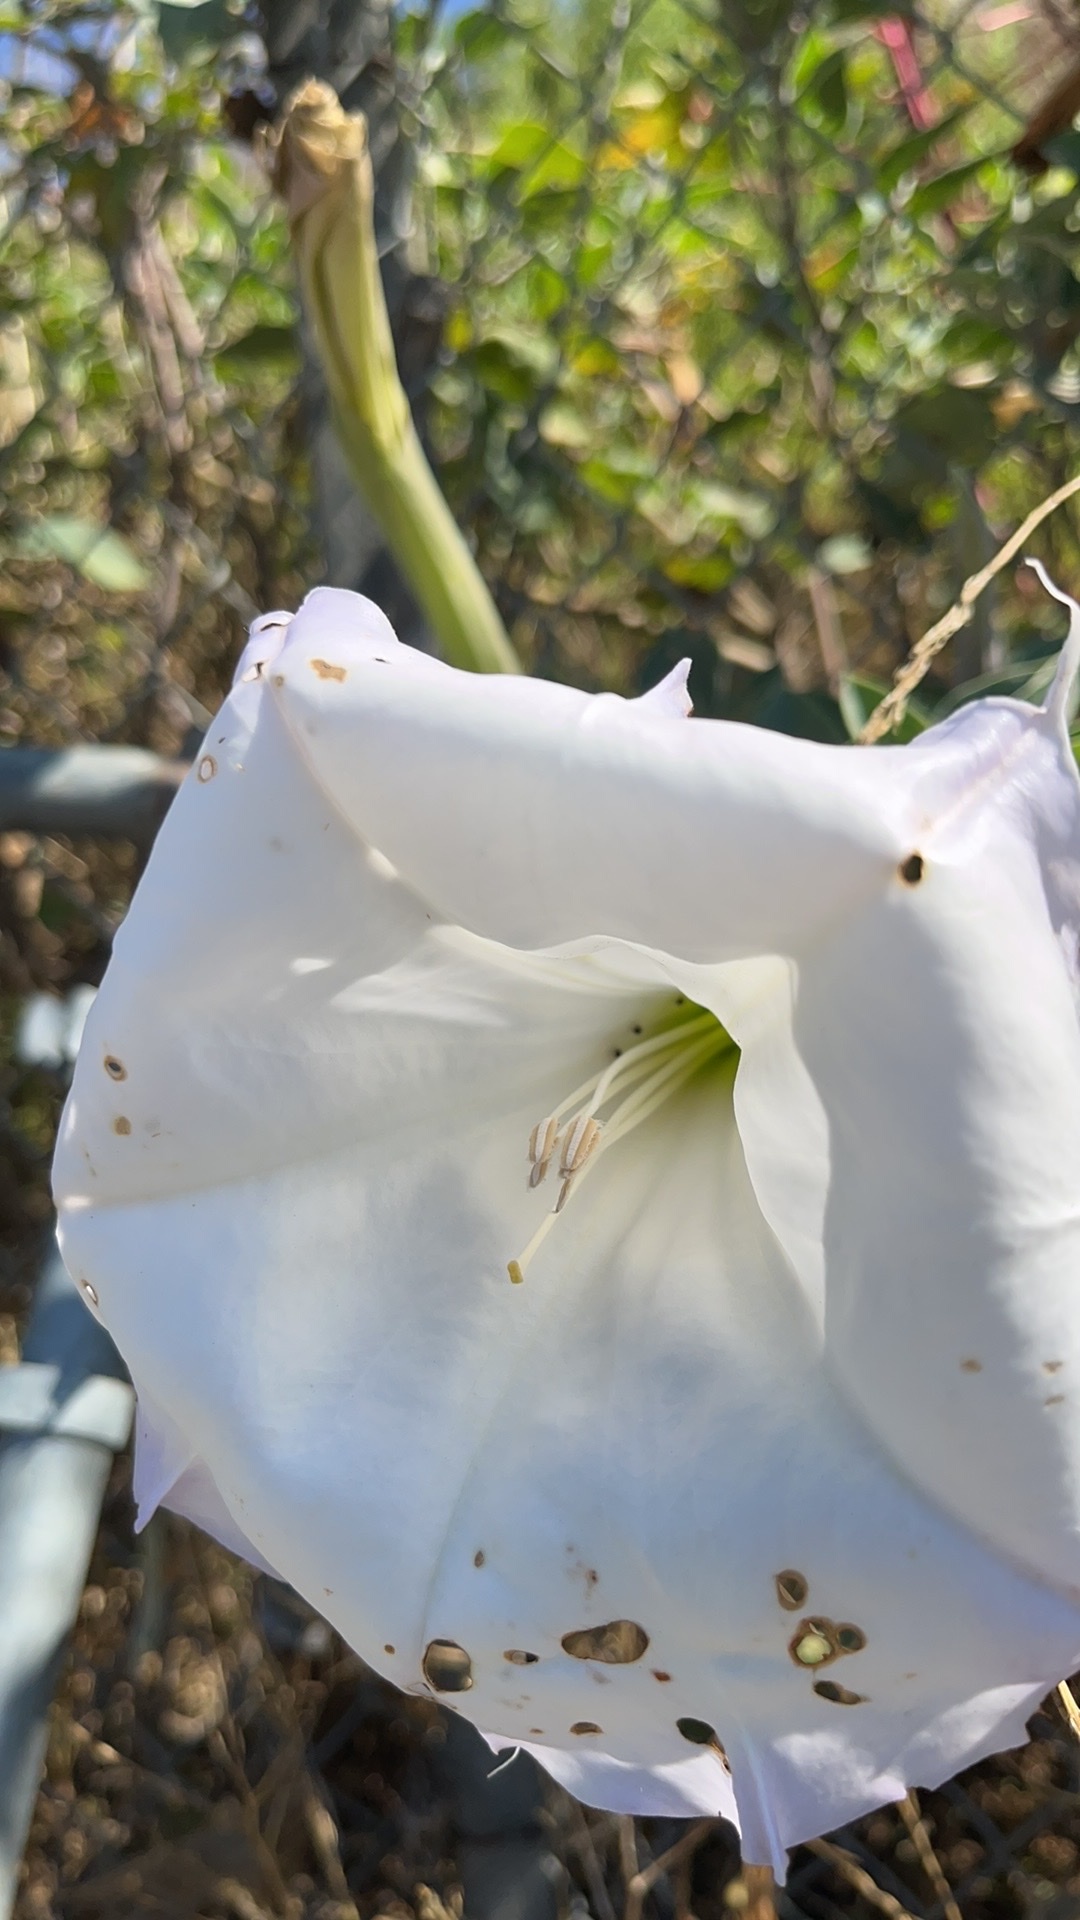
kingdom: Plantae
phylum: Tracheophyta
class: Magnoliopsida
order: Solanales
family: Solanaceae
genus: Datura
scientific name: Datura wrightii
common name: Sacred thorn-apple
